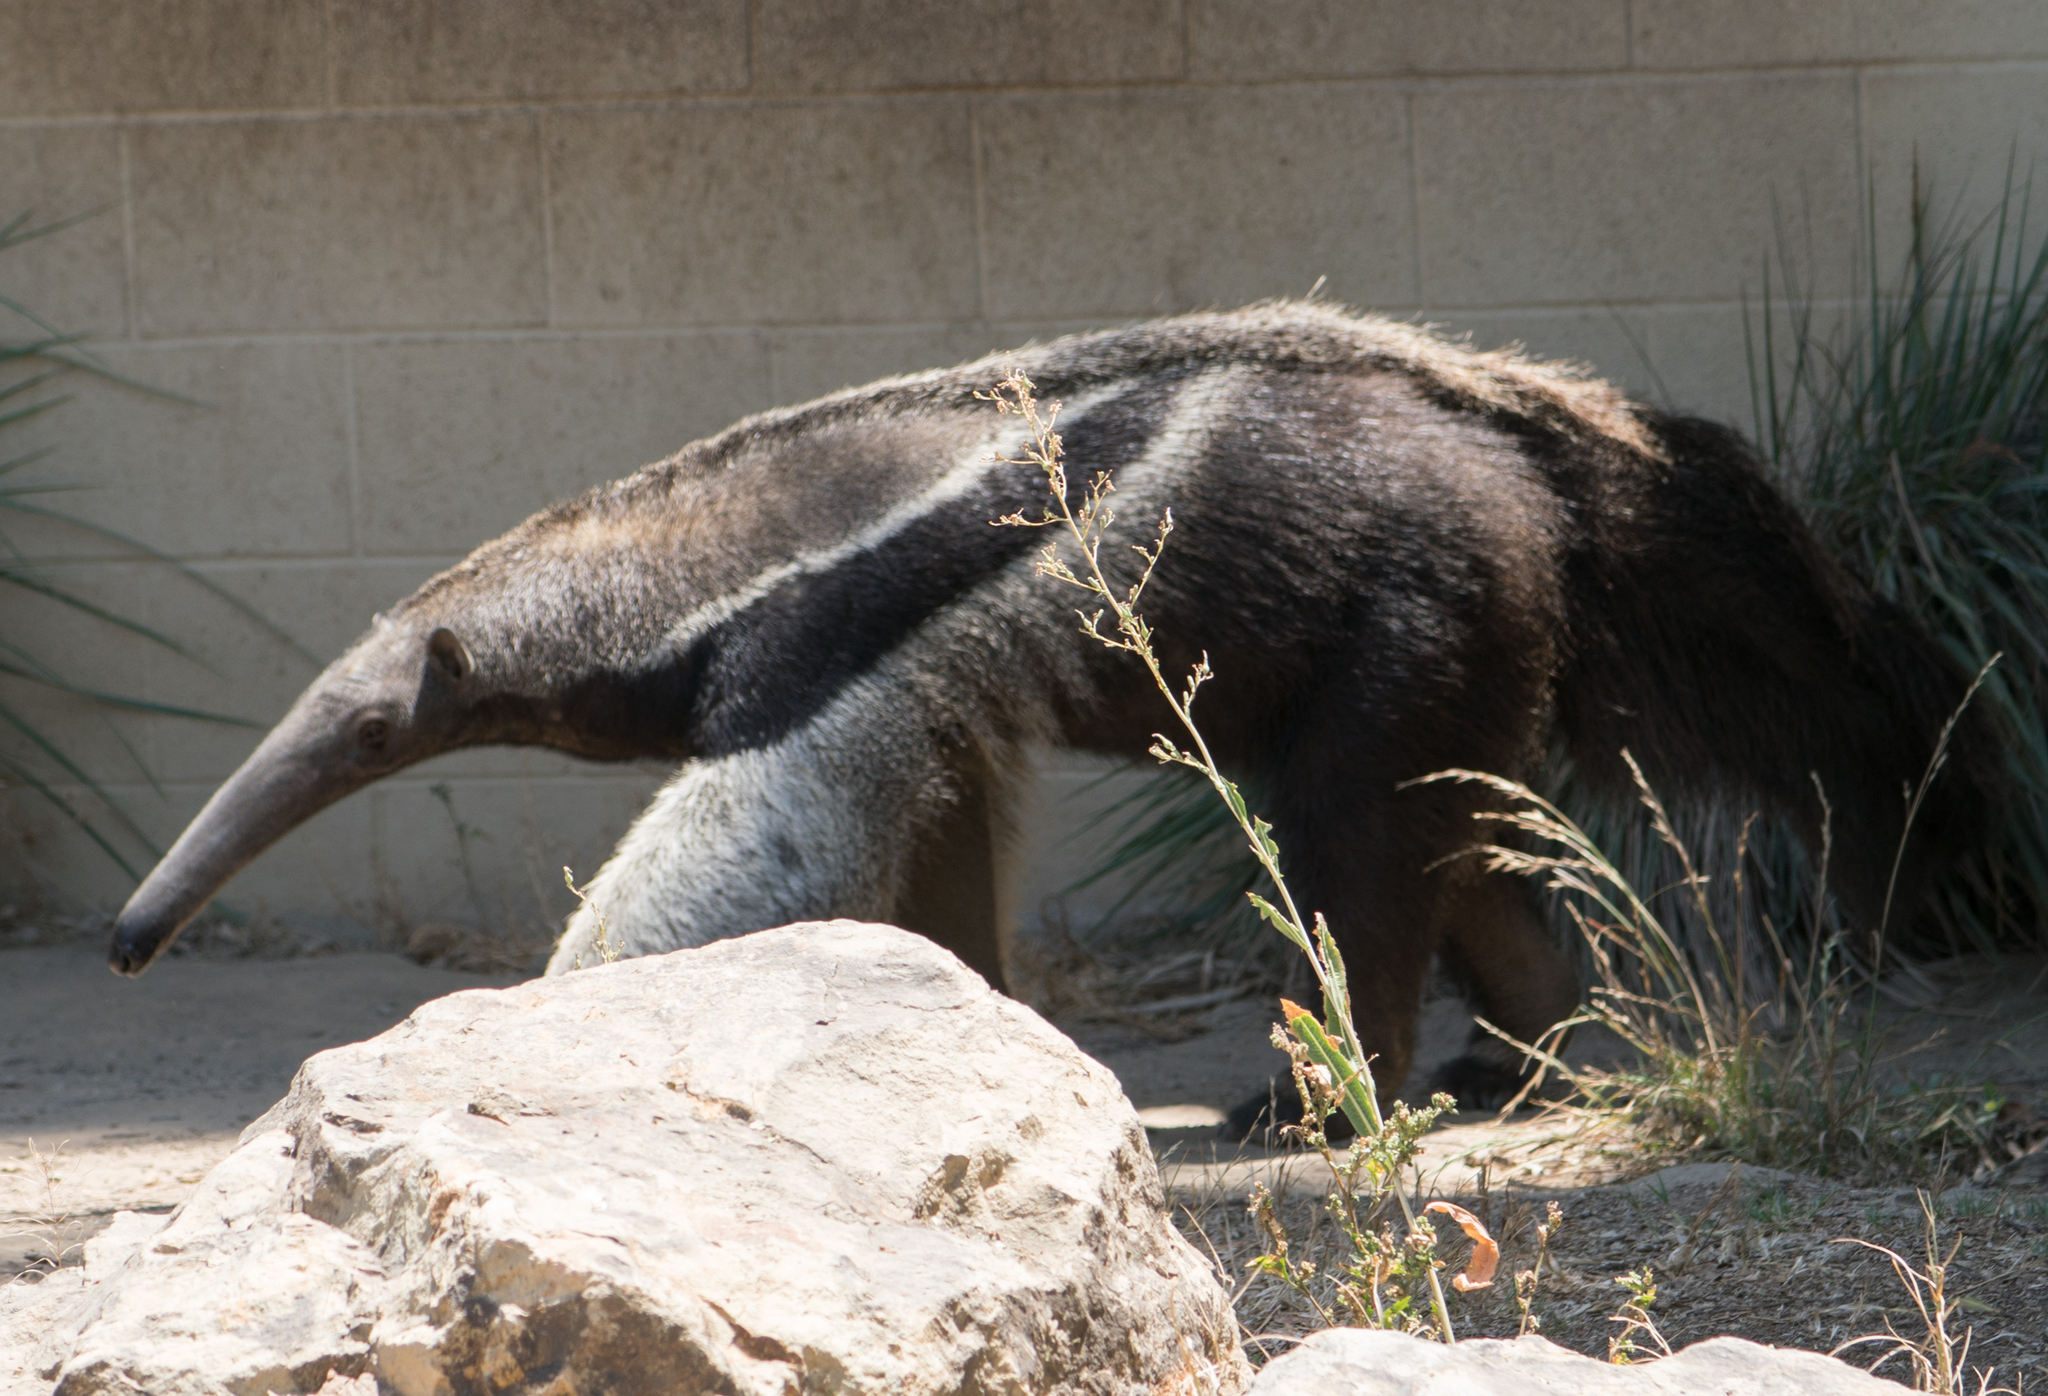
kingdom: Plantae
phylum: Tracheophyta
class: Magnoliopsida
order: Asterales
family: Asteraceae
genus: Lactuca
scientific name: Lactuca serriola
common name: Prickly lettuce
